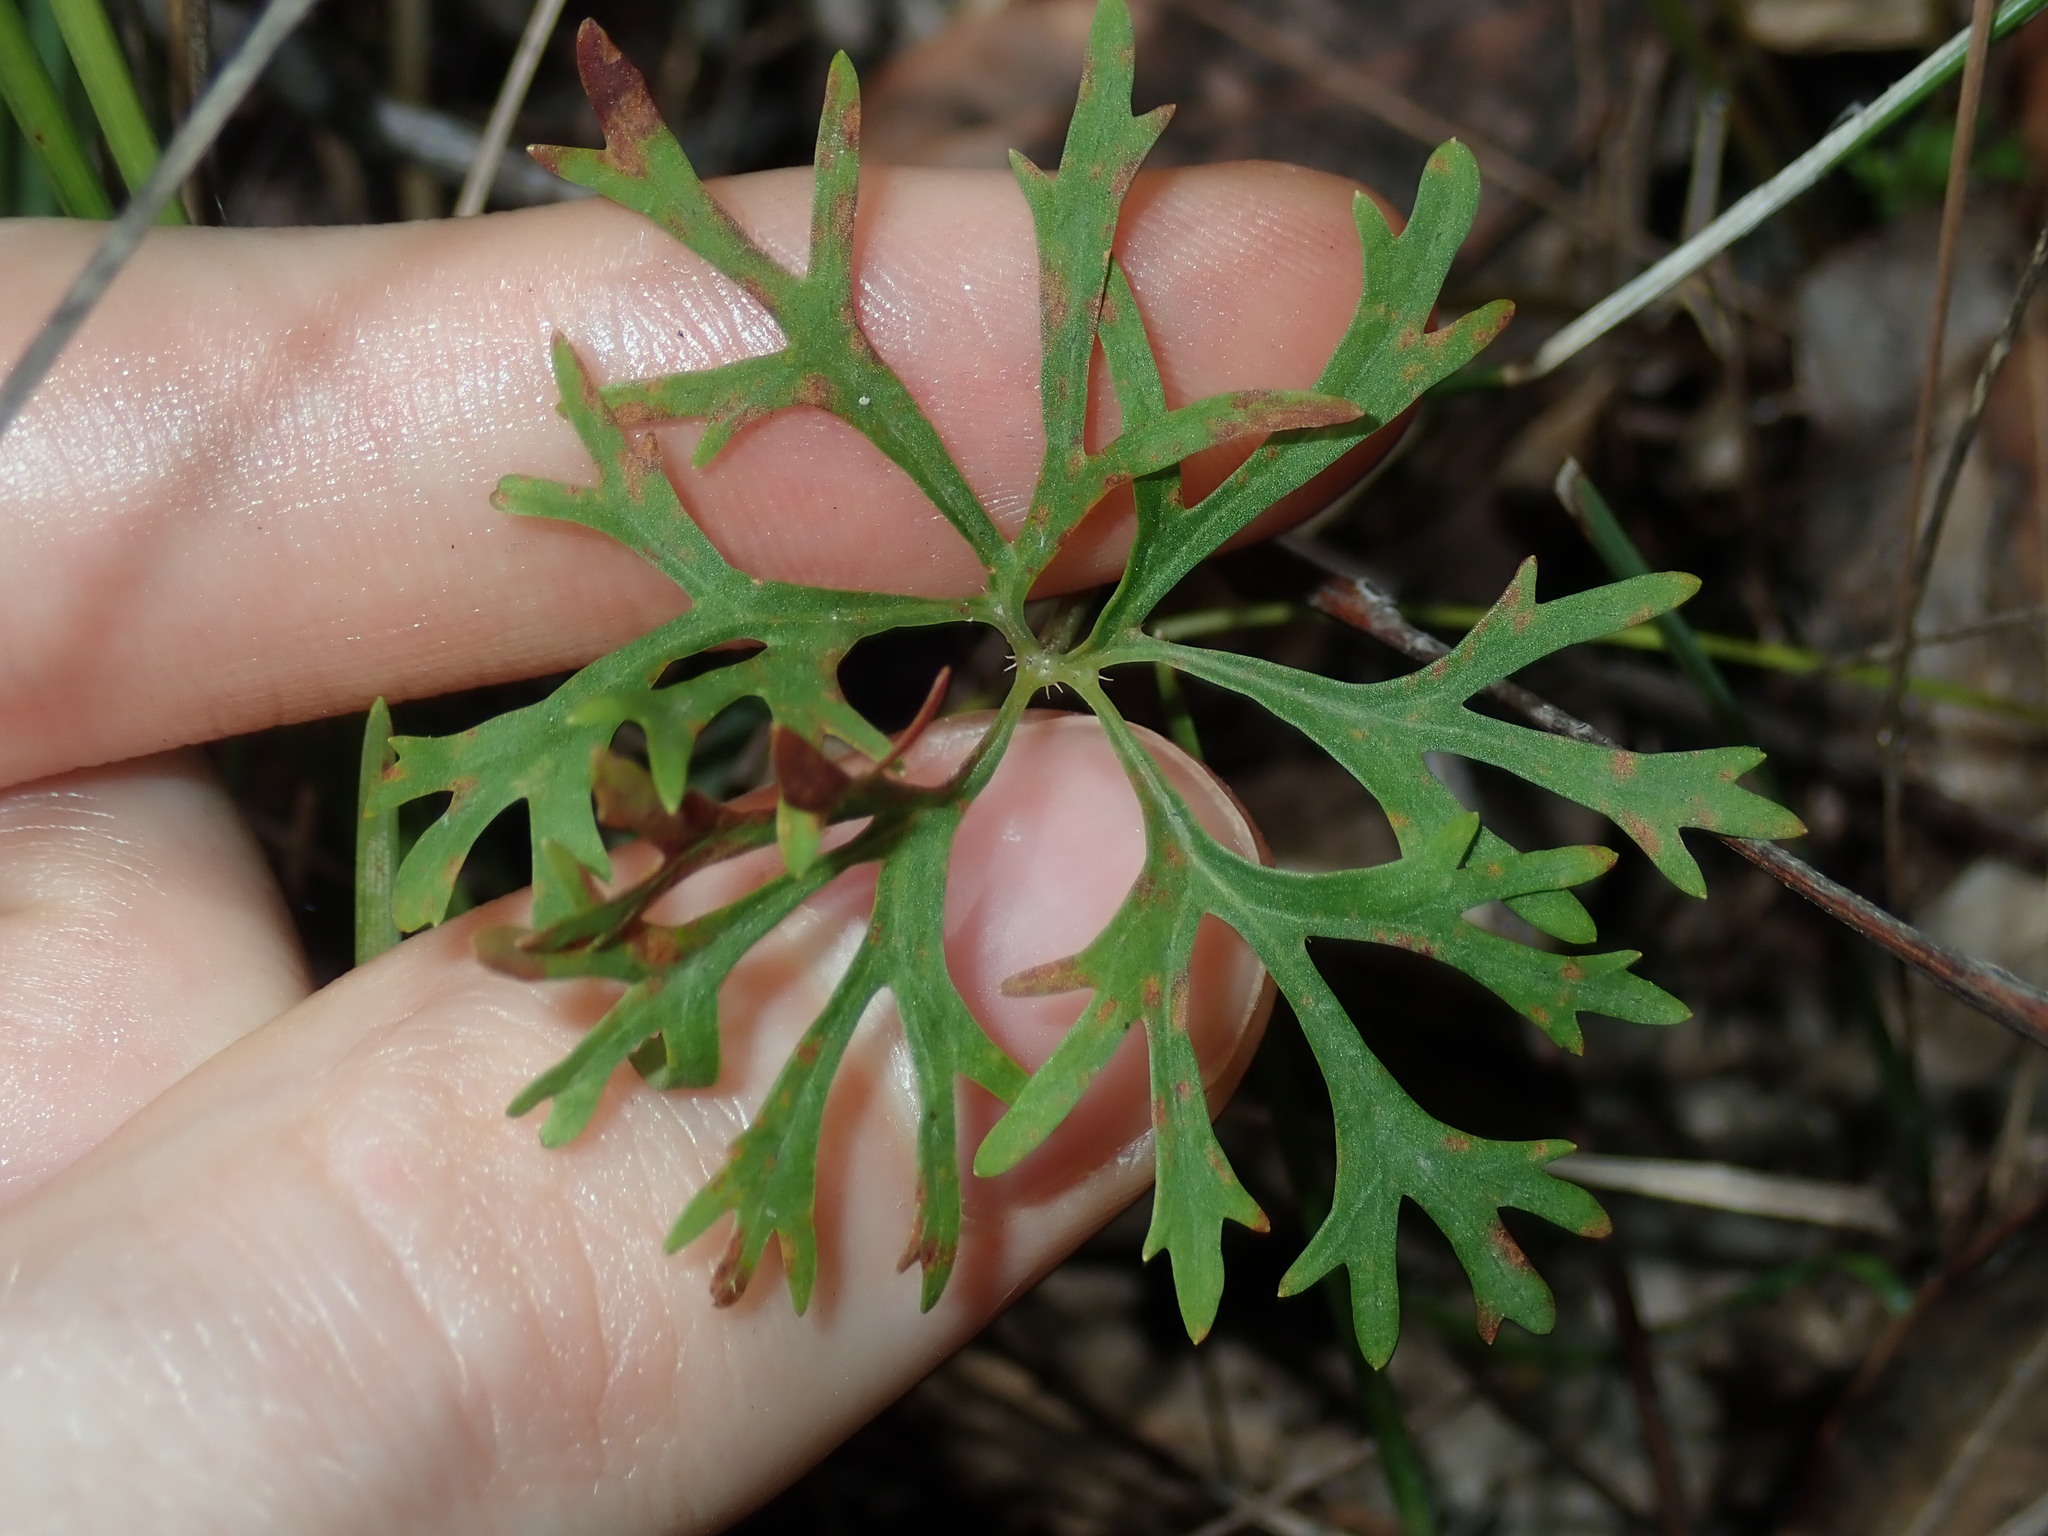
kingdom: Plantae
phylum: Tracheophyta
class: Magnoliopsida
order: Apiales
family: Araliaceae
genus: Trachymene
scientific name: Trachymene incisa
